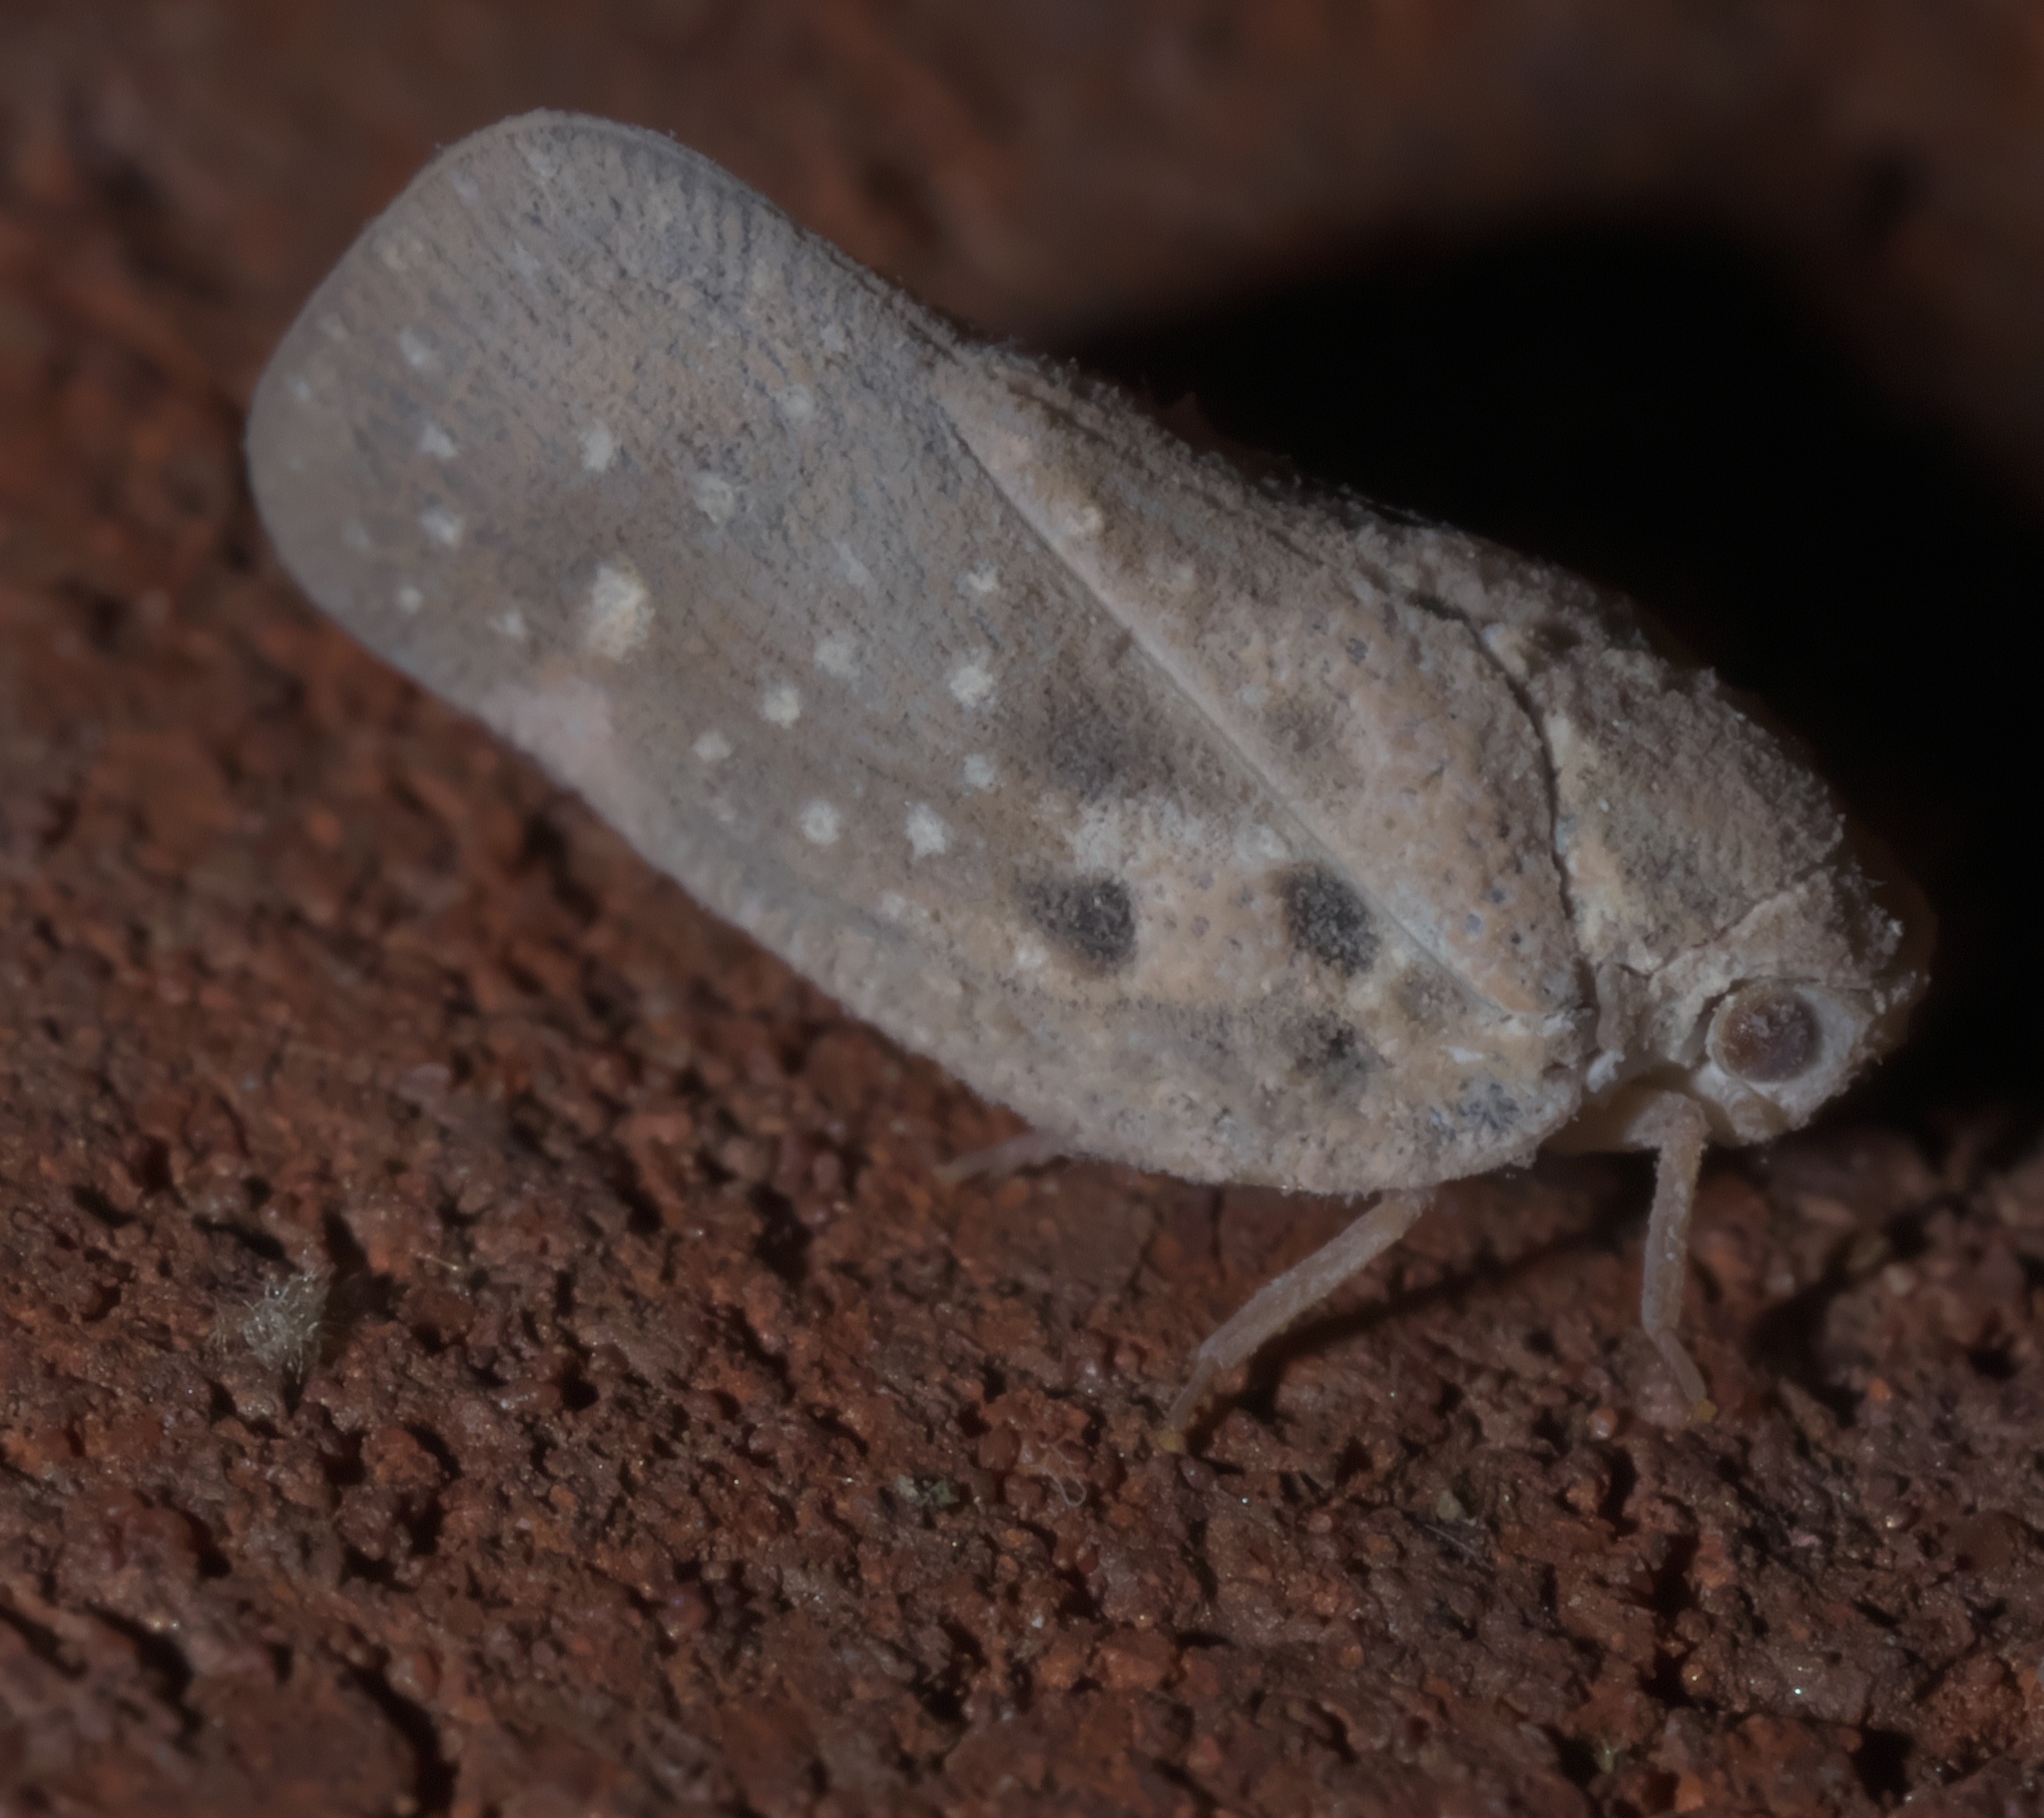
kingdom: Animalia
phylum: Arthropoda
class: Insecta
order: Hemiptera
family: Flatidae
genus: Metcalfa
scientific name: Metcalfa pruinosa
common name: Citrus flatid planthopper
